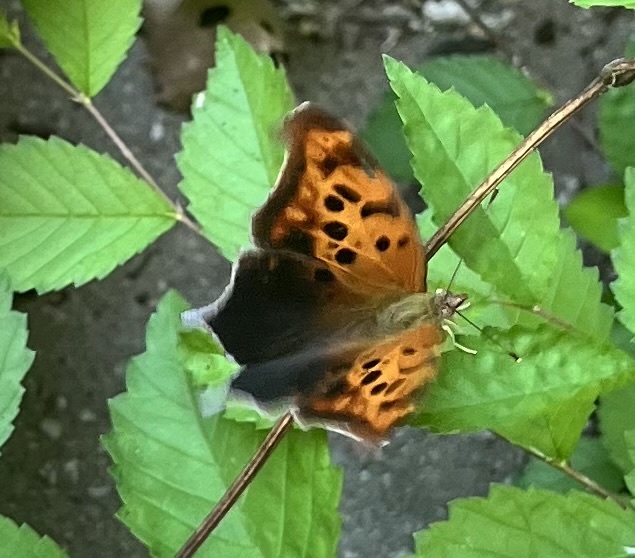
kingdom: Animalia
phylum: Arthropoda
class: Insecta
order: Lepidoptera
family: Nymphalidae
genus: Polygonia
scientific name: Polygonia interrogationis
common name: Question mark
